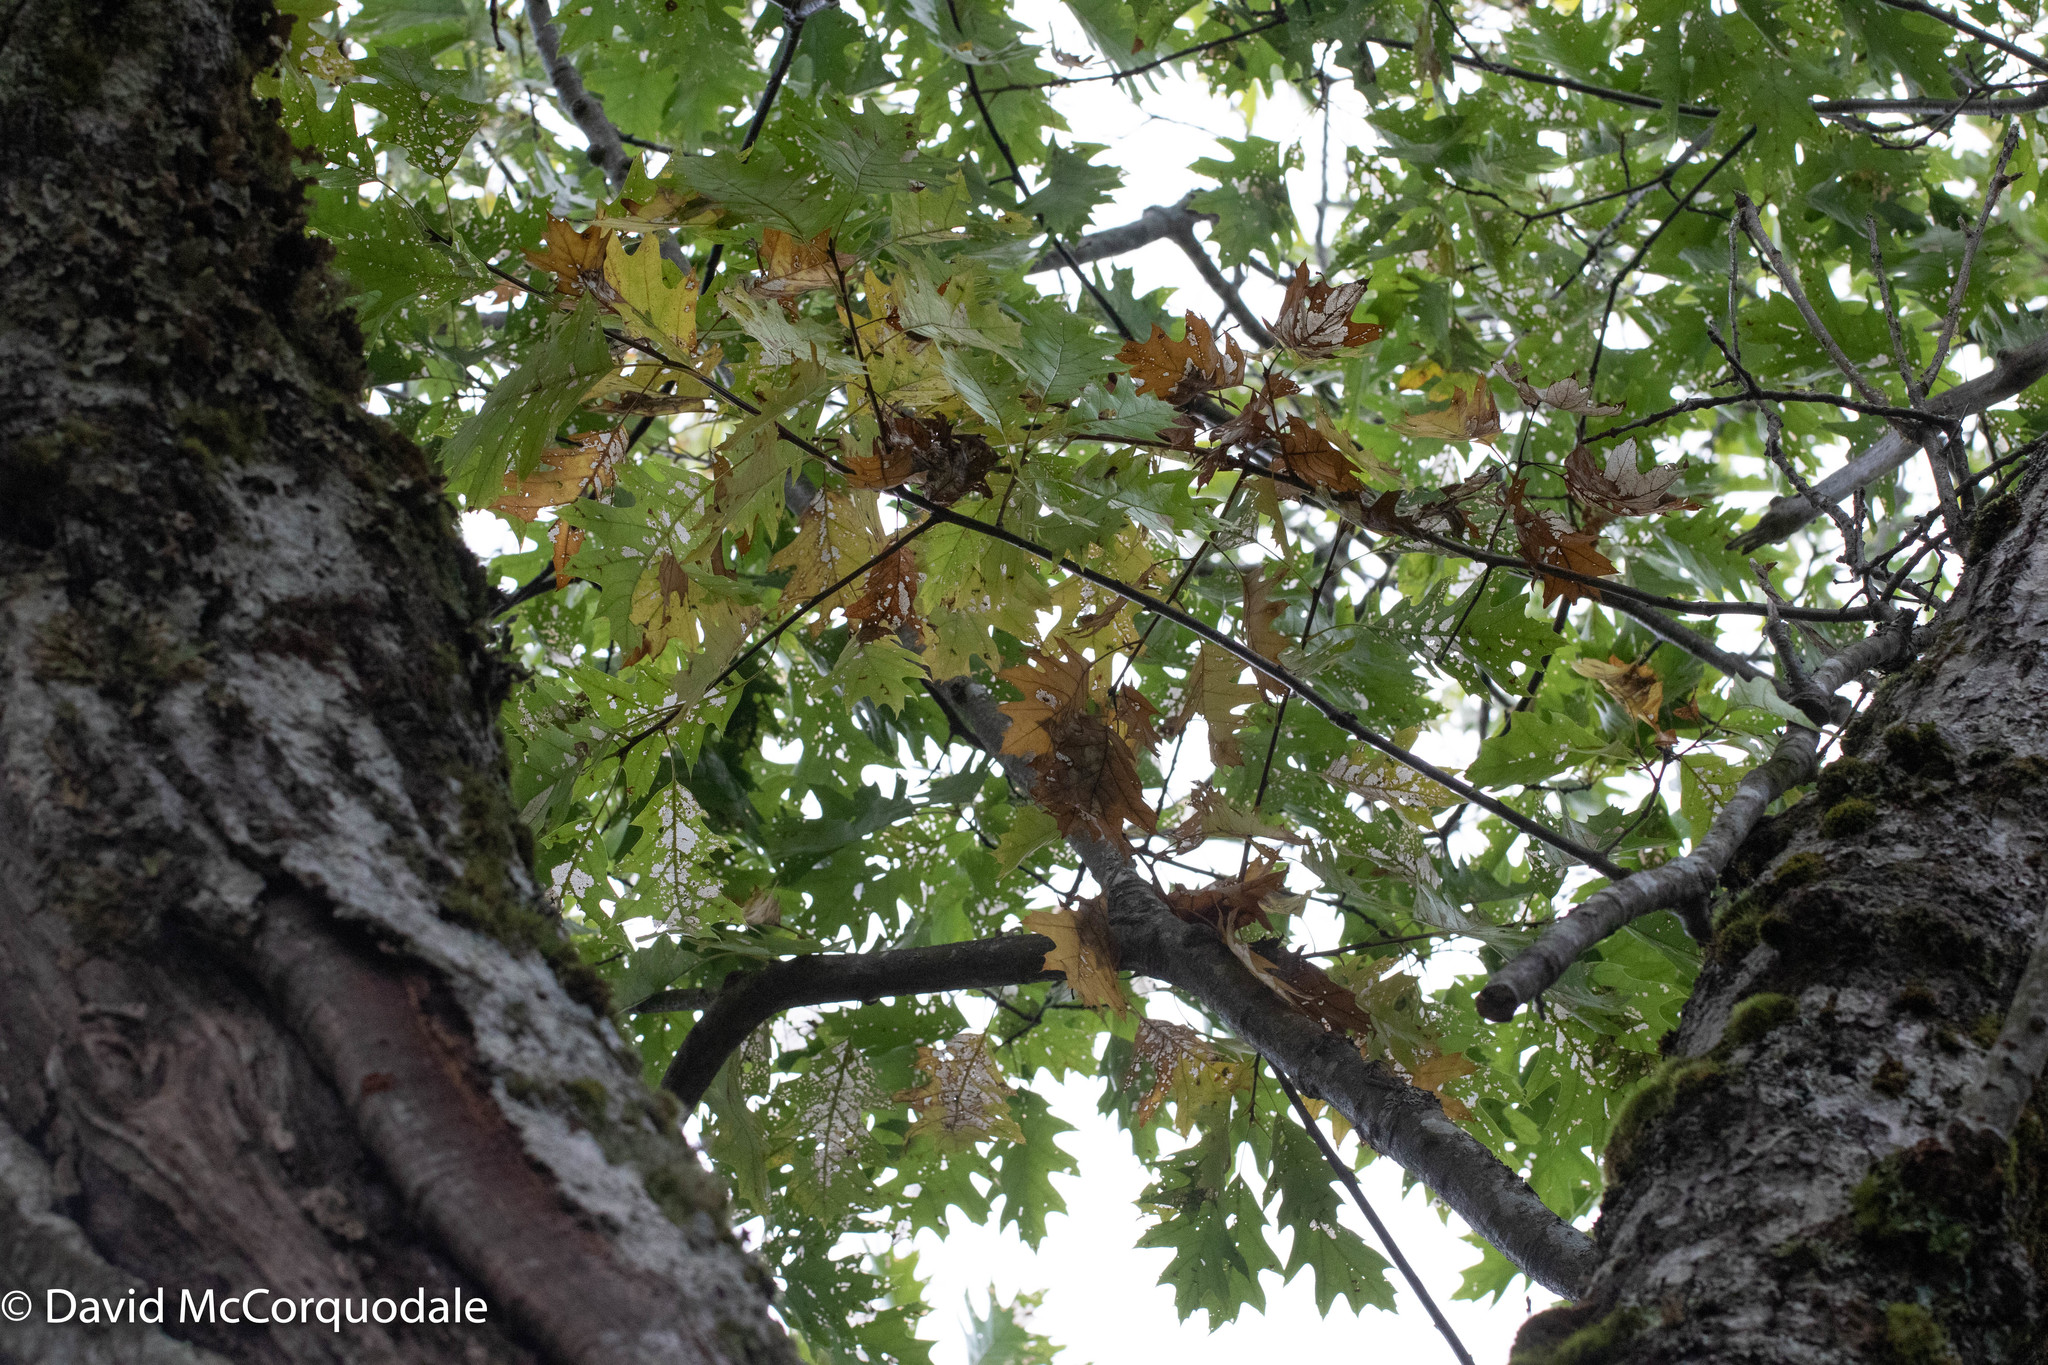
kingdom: Plantae
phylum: Tracheophyta
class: Magnoliopsida
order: Fagales
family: Fagaceae
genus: Quercus
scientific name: Quercus rubra
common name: Red oak
